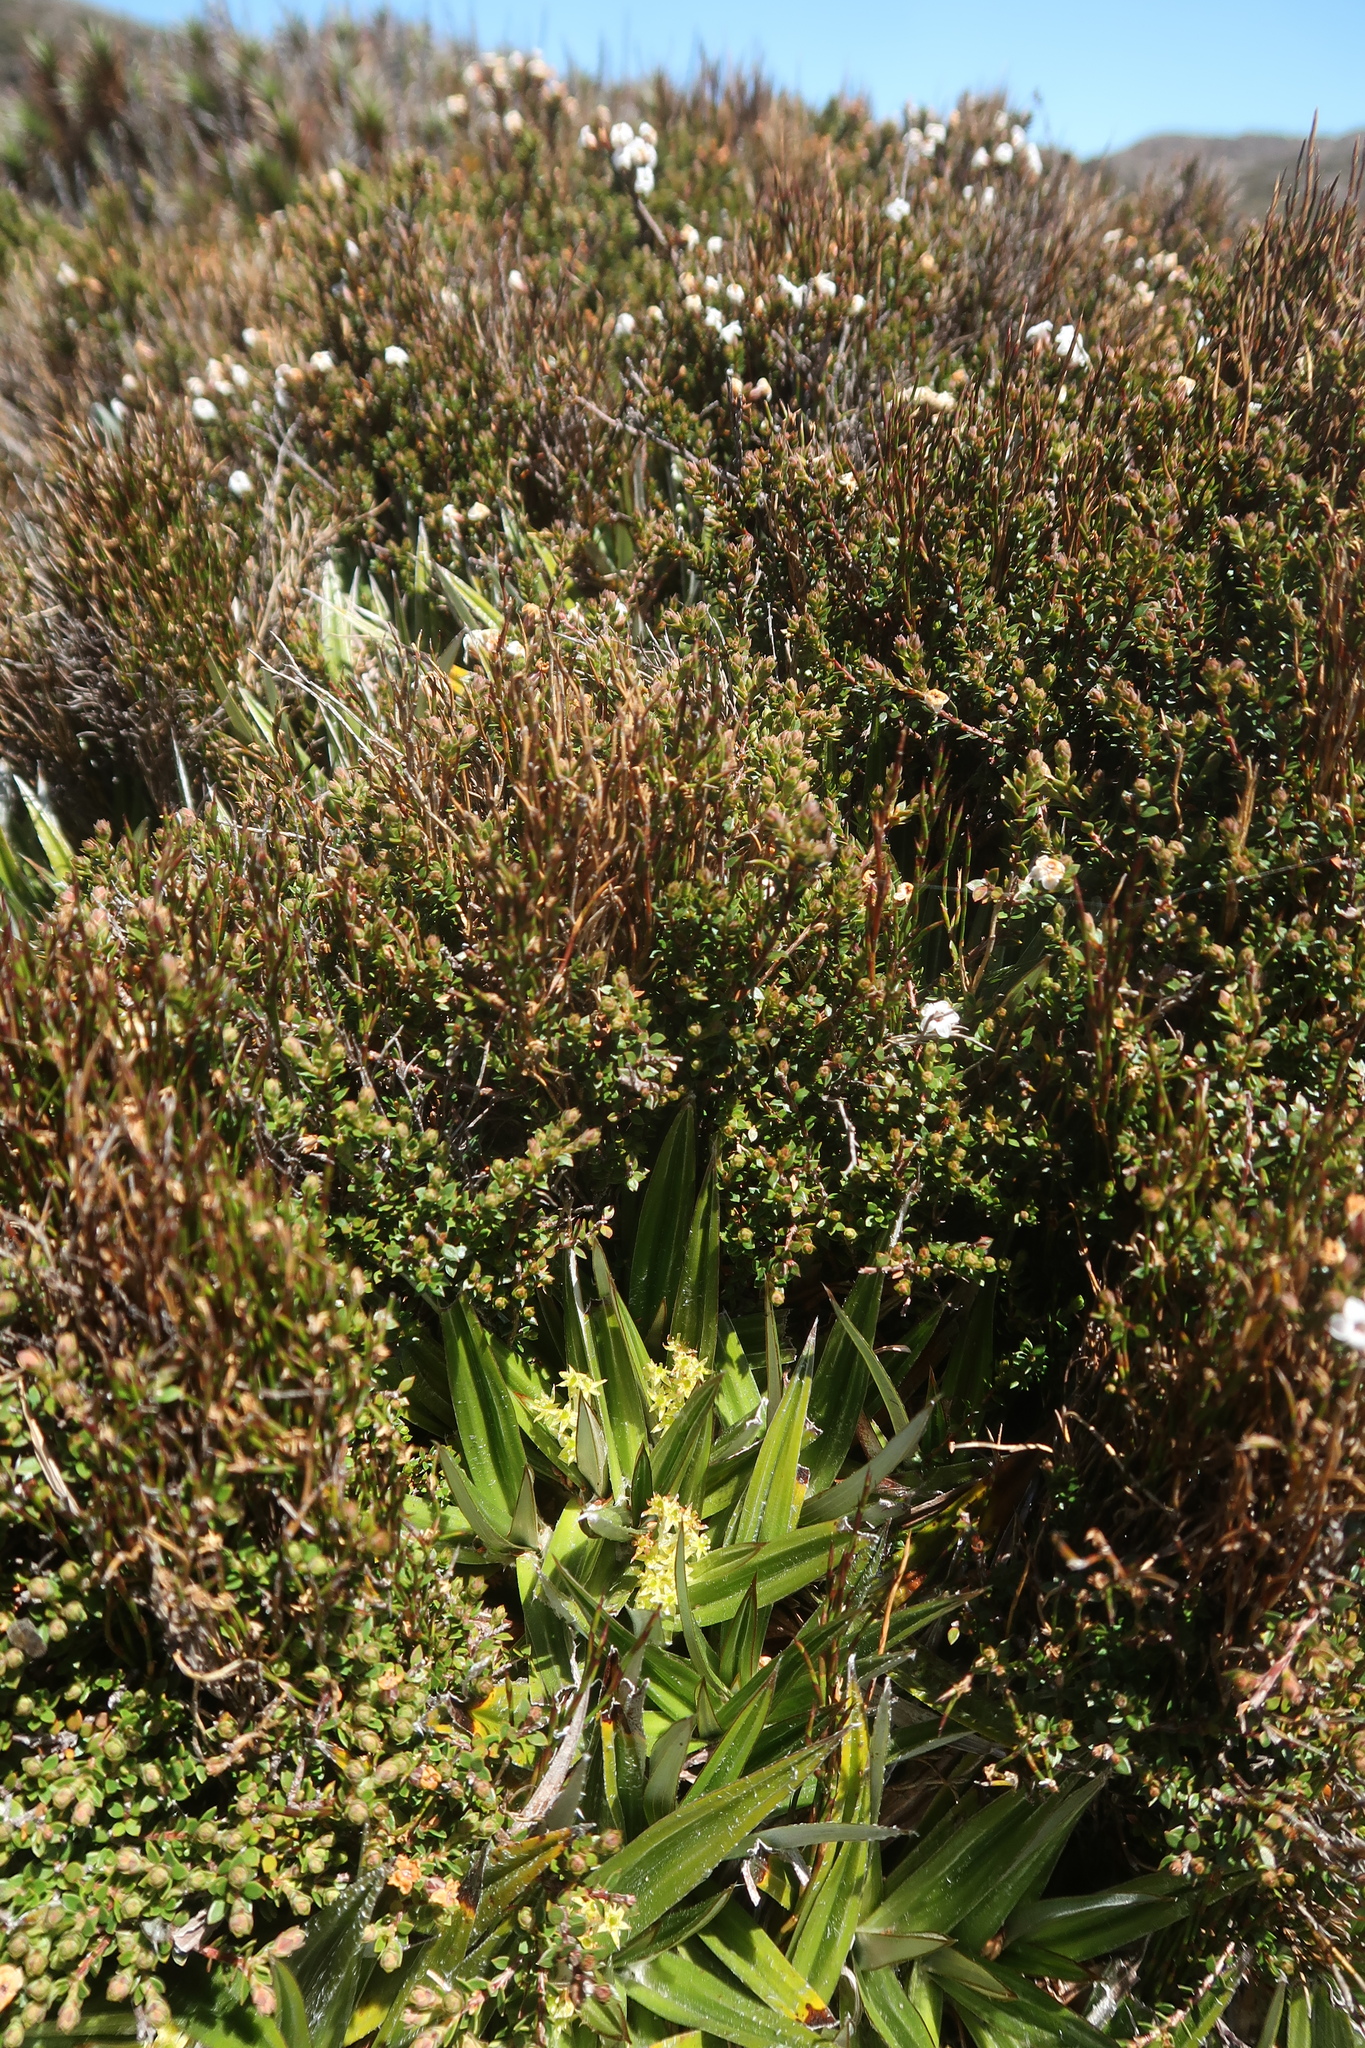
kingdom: Plantae
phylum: Tracheophyta
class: Liliopsida
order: Asparagales
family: Asteliaceae
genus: Astelia
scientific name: Astelia alpina
